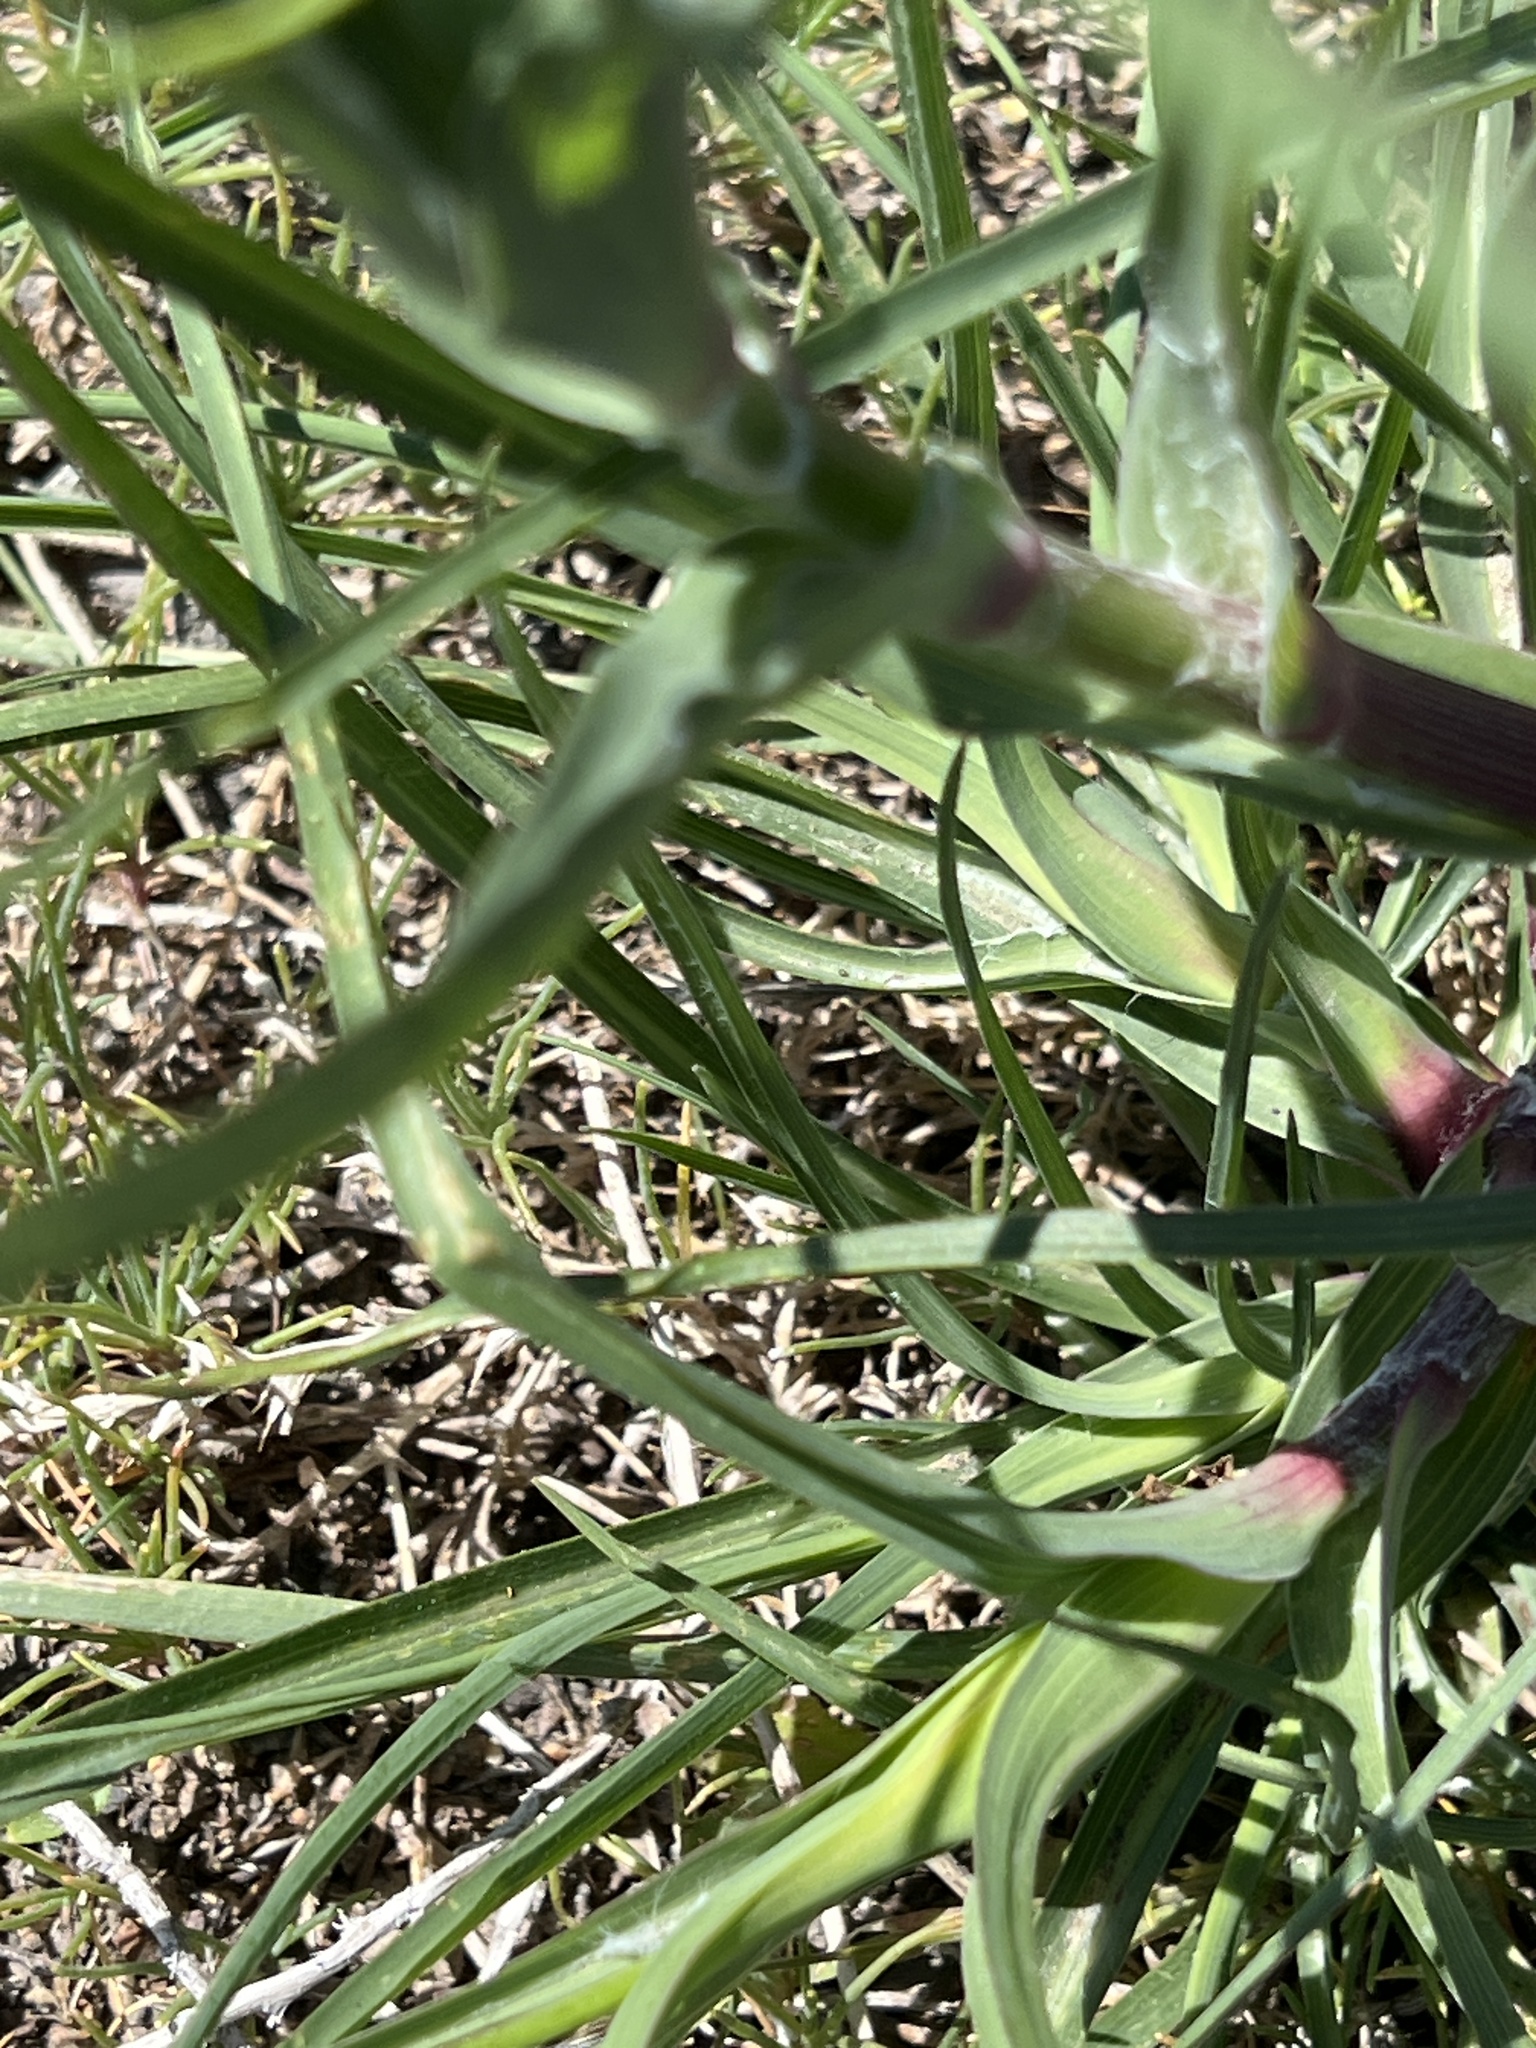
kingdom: Plantae
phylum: Tracheophyta
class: Magnoliopsida
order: Asterales
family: Asteraceae
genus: Tragopogon
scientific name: Tragopogon dubius
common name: Yellow salsify
